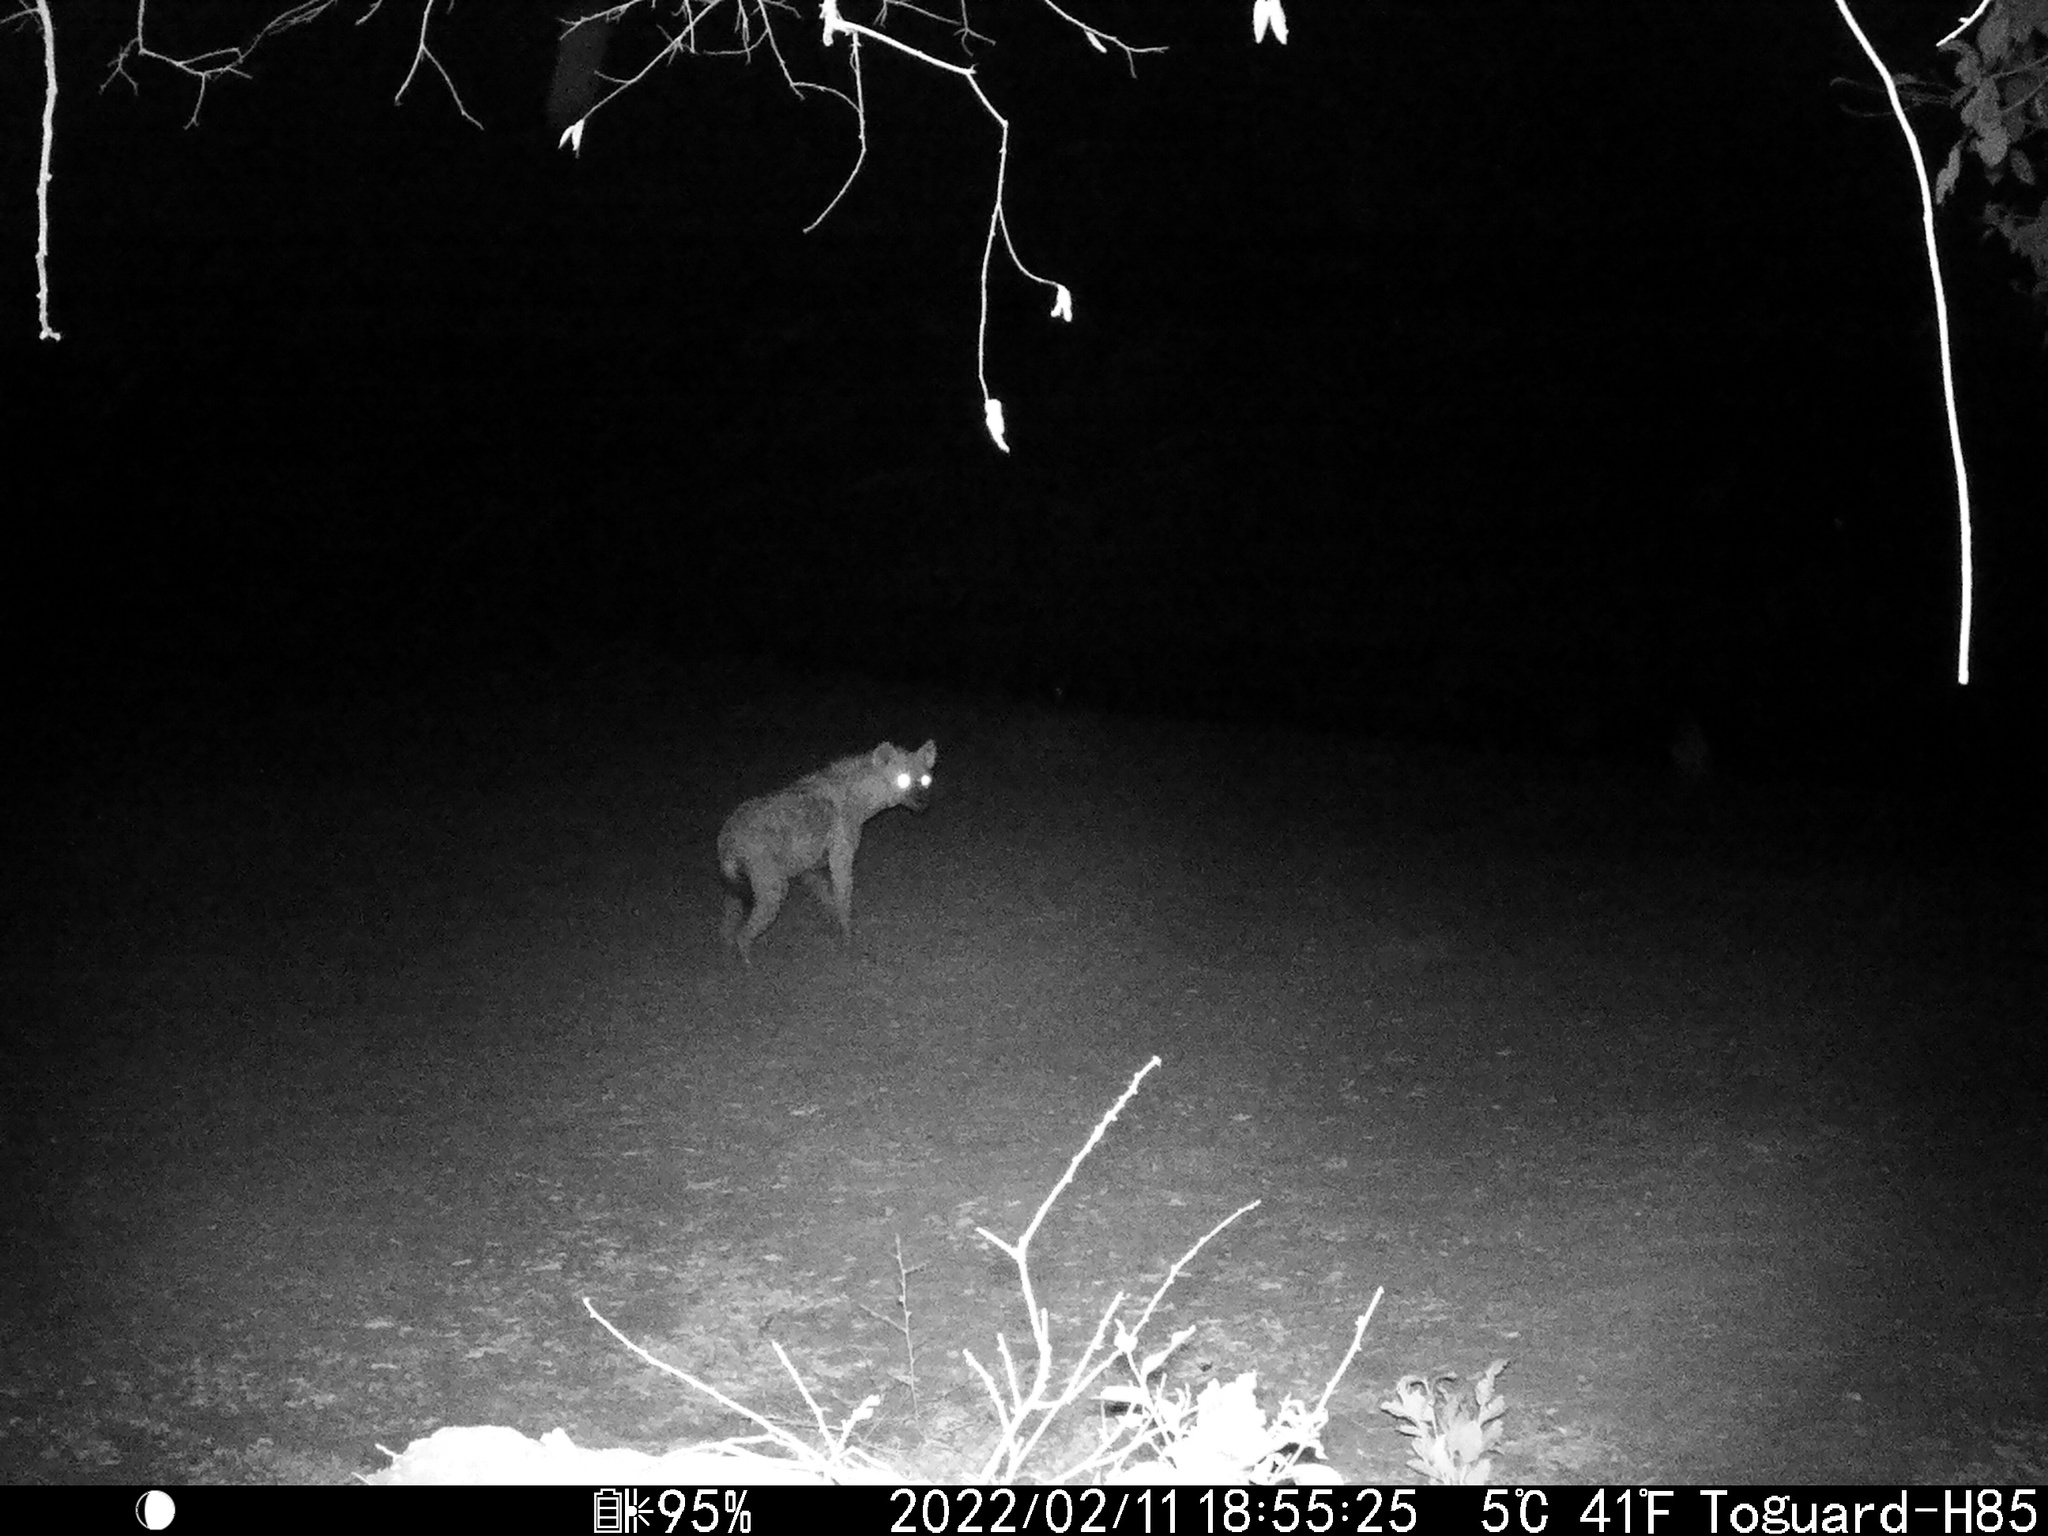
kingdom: Animalia
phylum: Chordata
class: Mammalia
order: Carnivora
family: Hyaenidae
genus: Crocuta
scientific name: Crocuta crocuta
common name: Spotted hyaena
